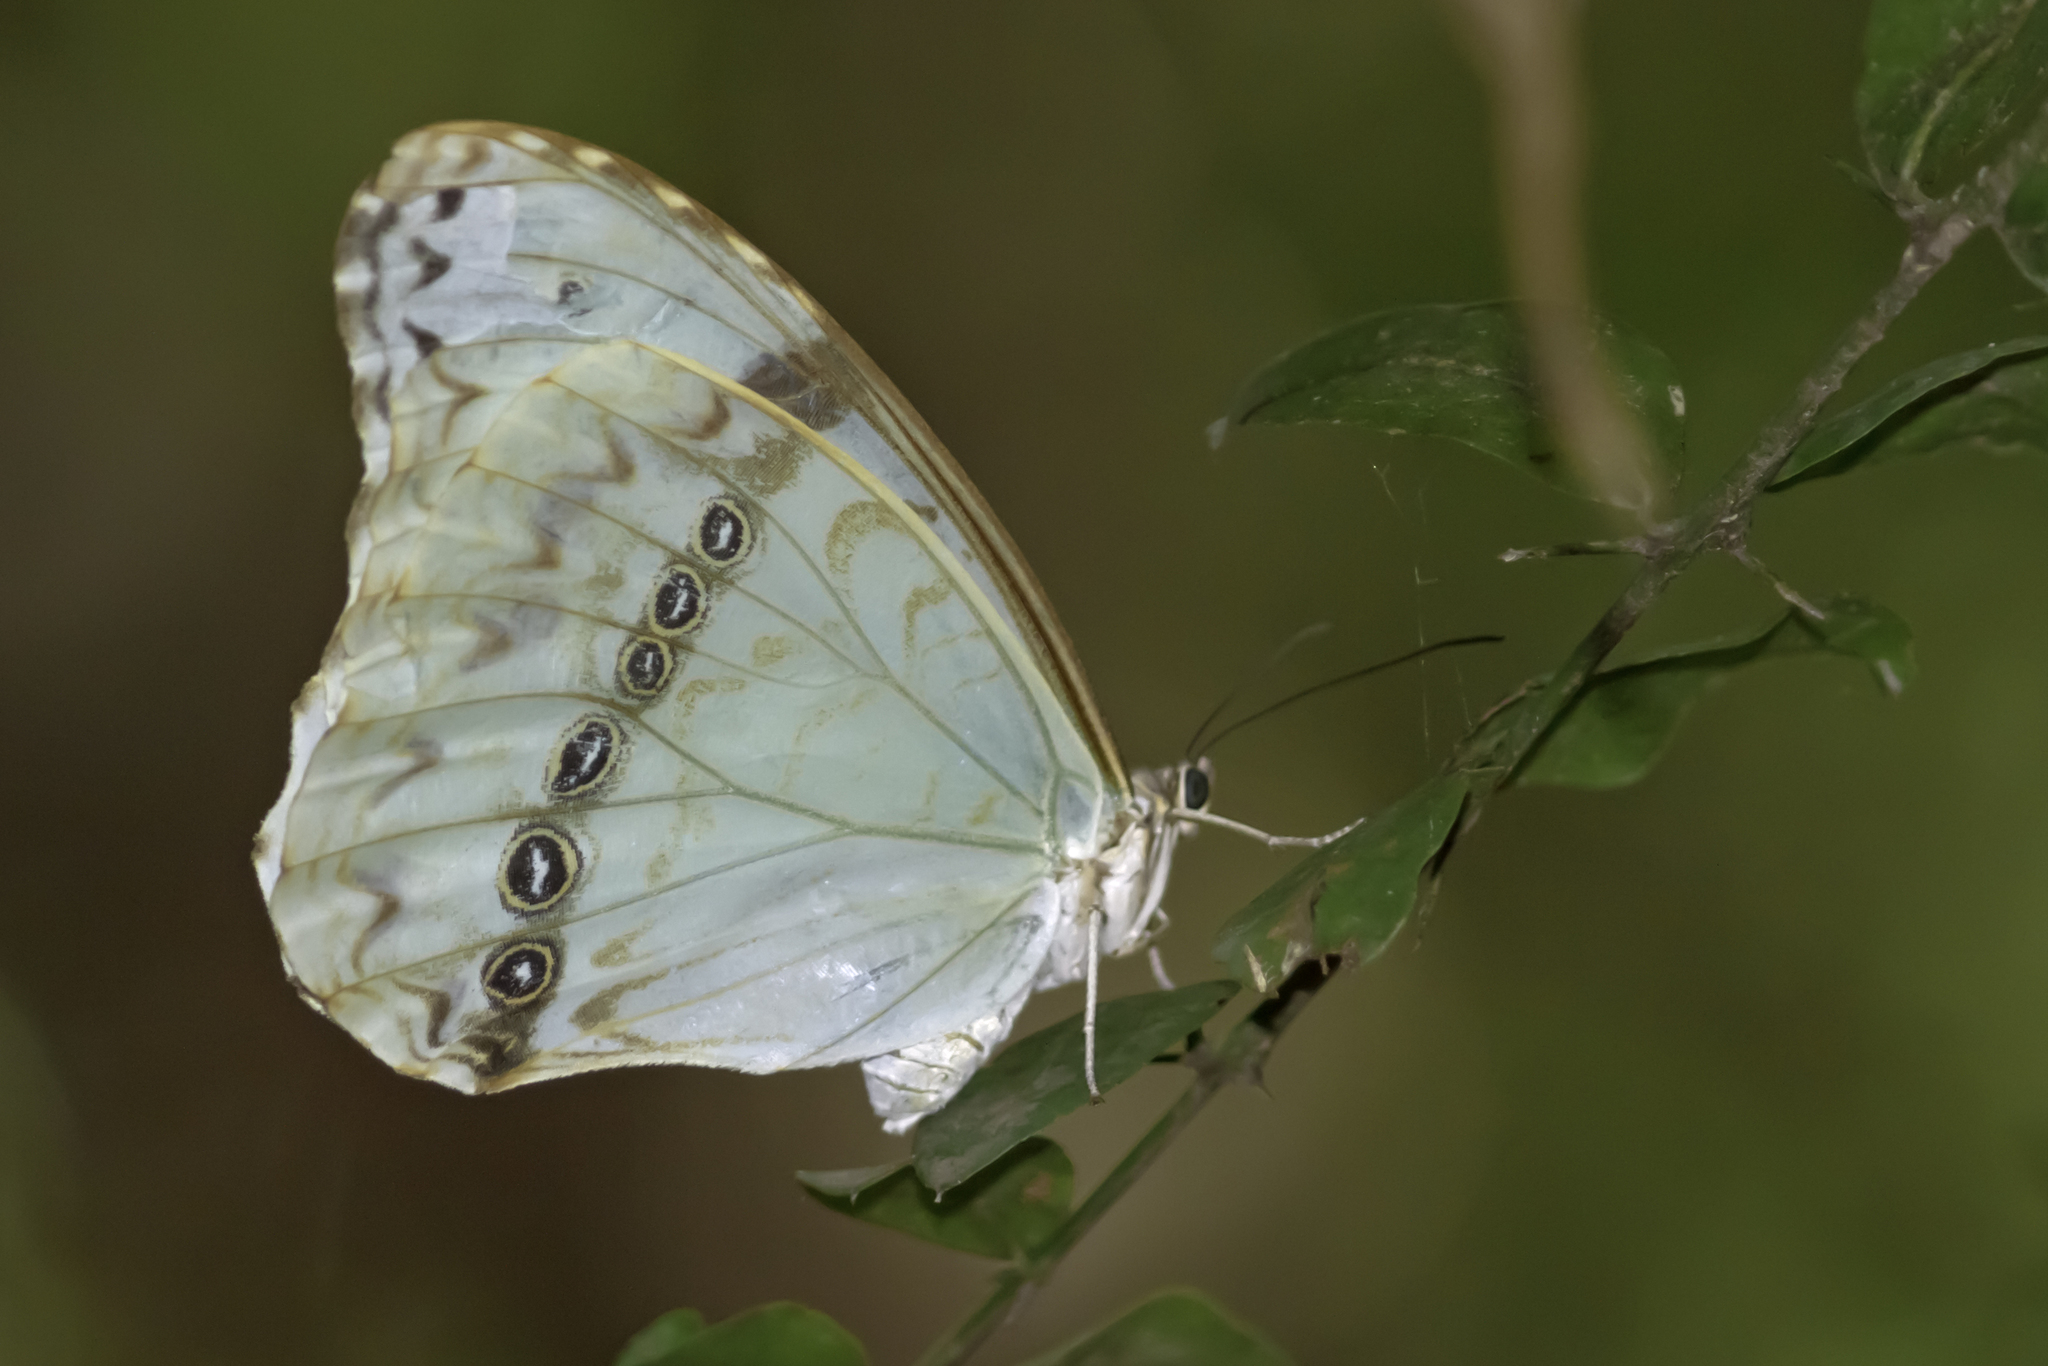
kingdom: Animalia
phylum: Arthropoda
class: Insecta
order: Lepidoptera
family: Nymphalidae
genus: Morpho
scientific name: Morpho epistrophus
